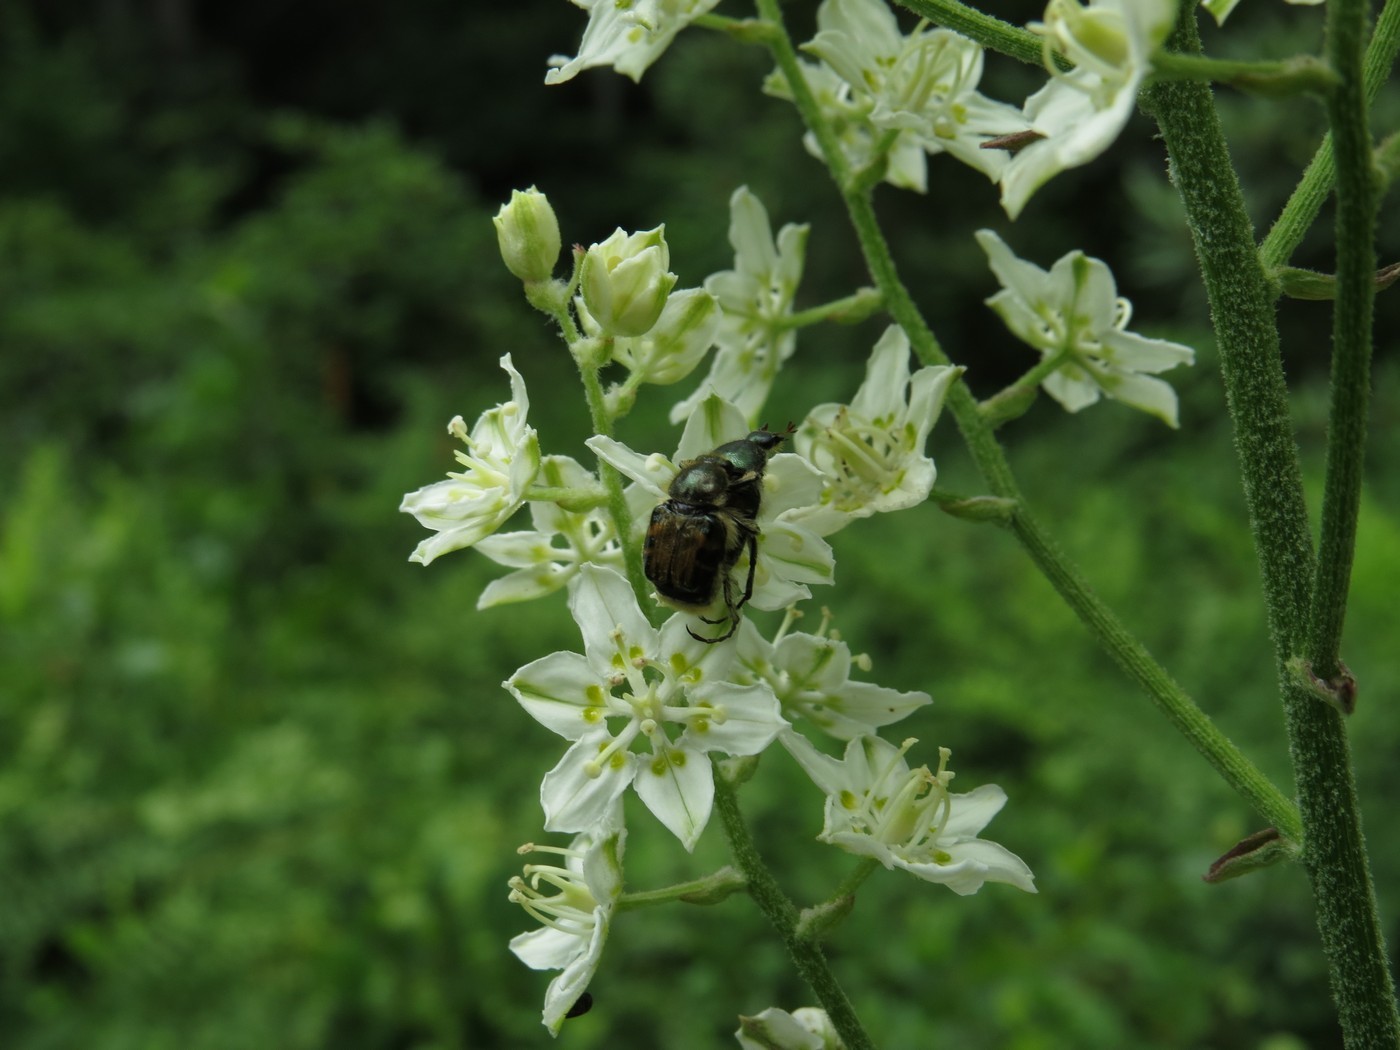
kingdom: Animalia
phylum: Arthropoda
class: Insecta
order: Coleoptera
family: Scarabaeidae
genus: Trichiotinus
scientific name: Trichiotinus affinis
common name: Hairy flower scarab
